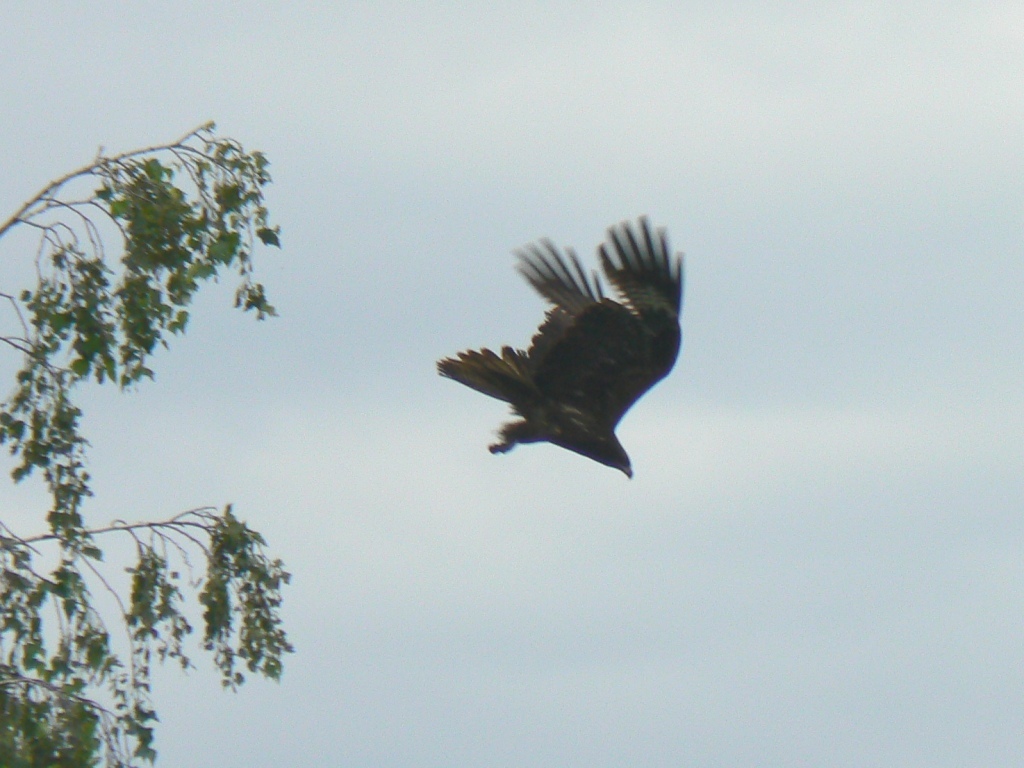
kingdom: Animalia
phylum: Chordata
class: Aves
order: Accipitriformes
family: Accipitridae
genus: Milvus
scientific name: Milvus migrans
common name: Black kite
